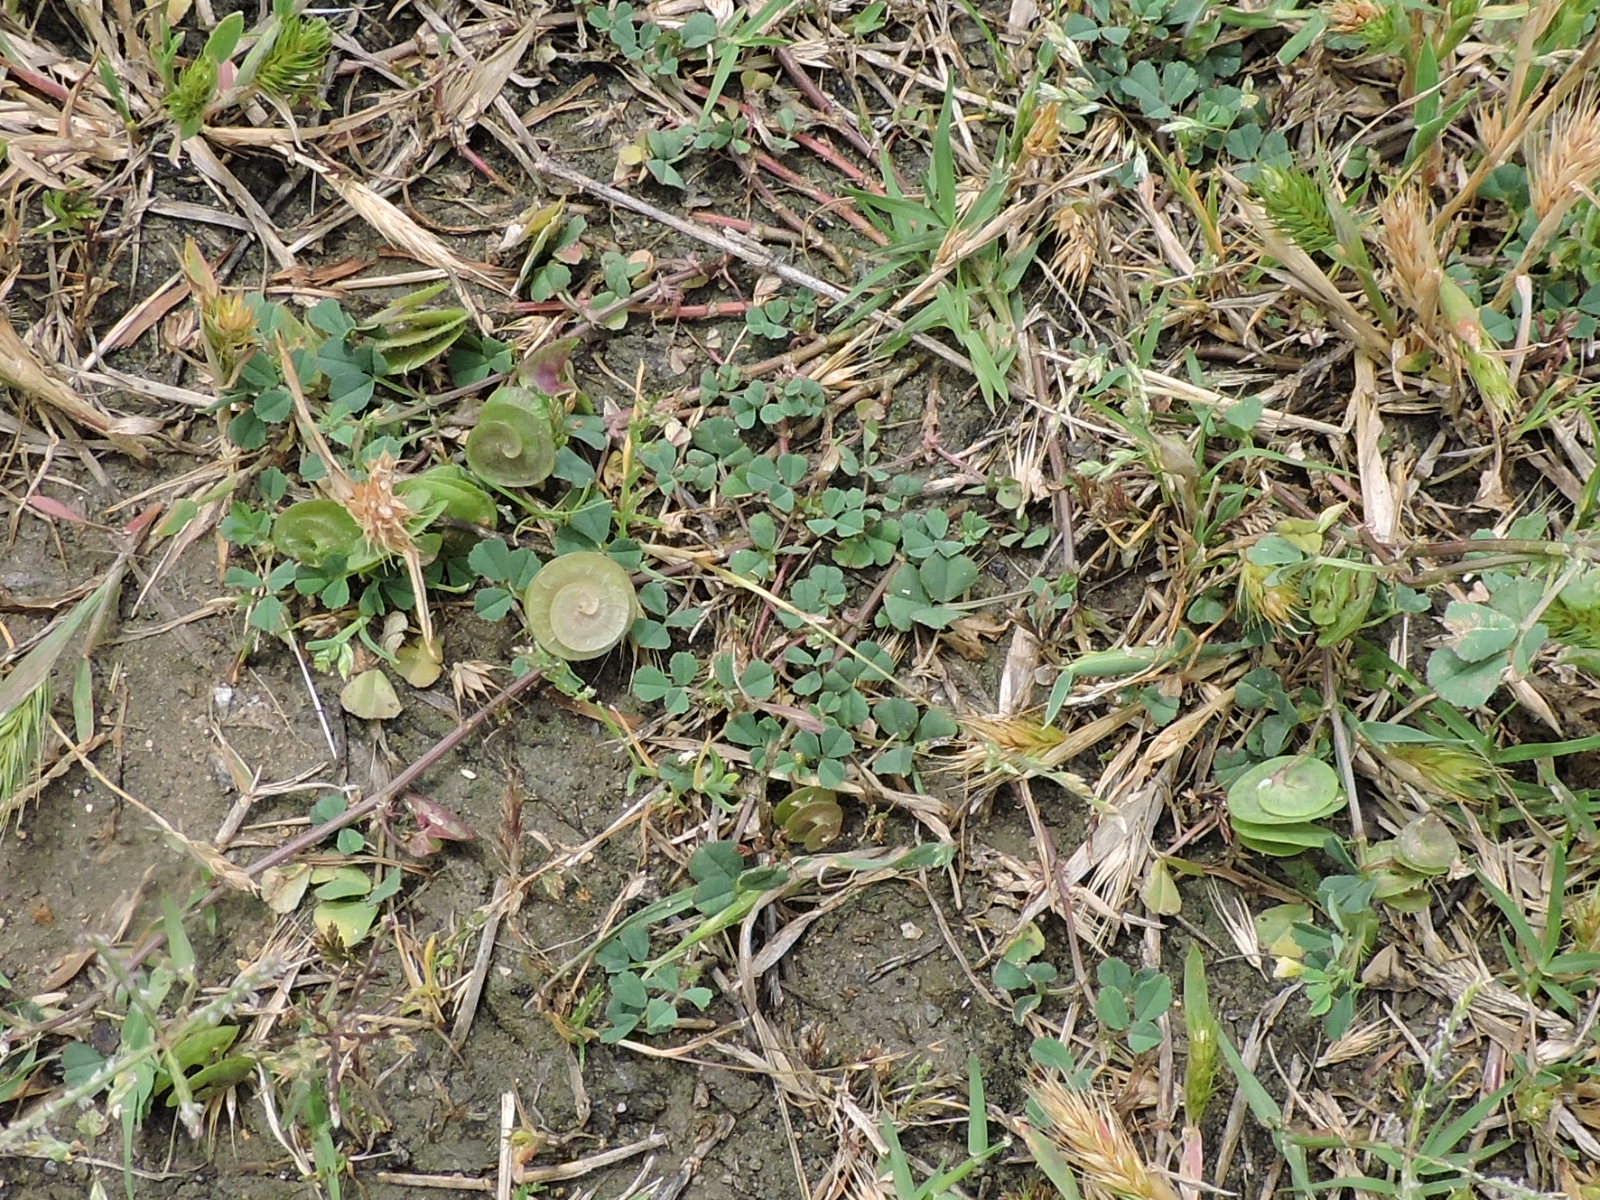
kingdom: Plantae
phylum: Tracheophyta
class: Magnoliopsida
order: Fabales
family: Fabaceae
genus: Medicago
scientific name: Medicago orbicularis
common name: Button medick
